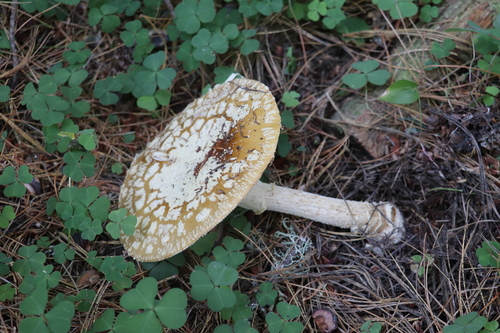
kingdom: Fungi
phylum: Basidiomycota
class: Agaricomycetes
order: Agaricales
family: Amanitaceae
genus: Amanita
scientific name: Amanita regalis
